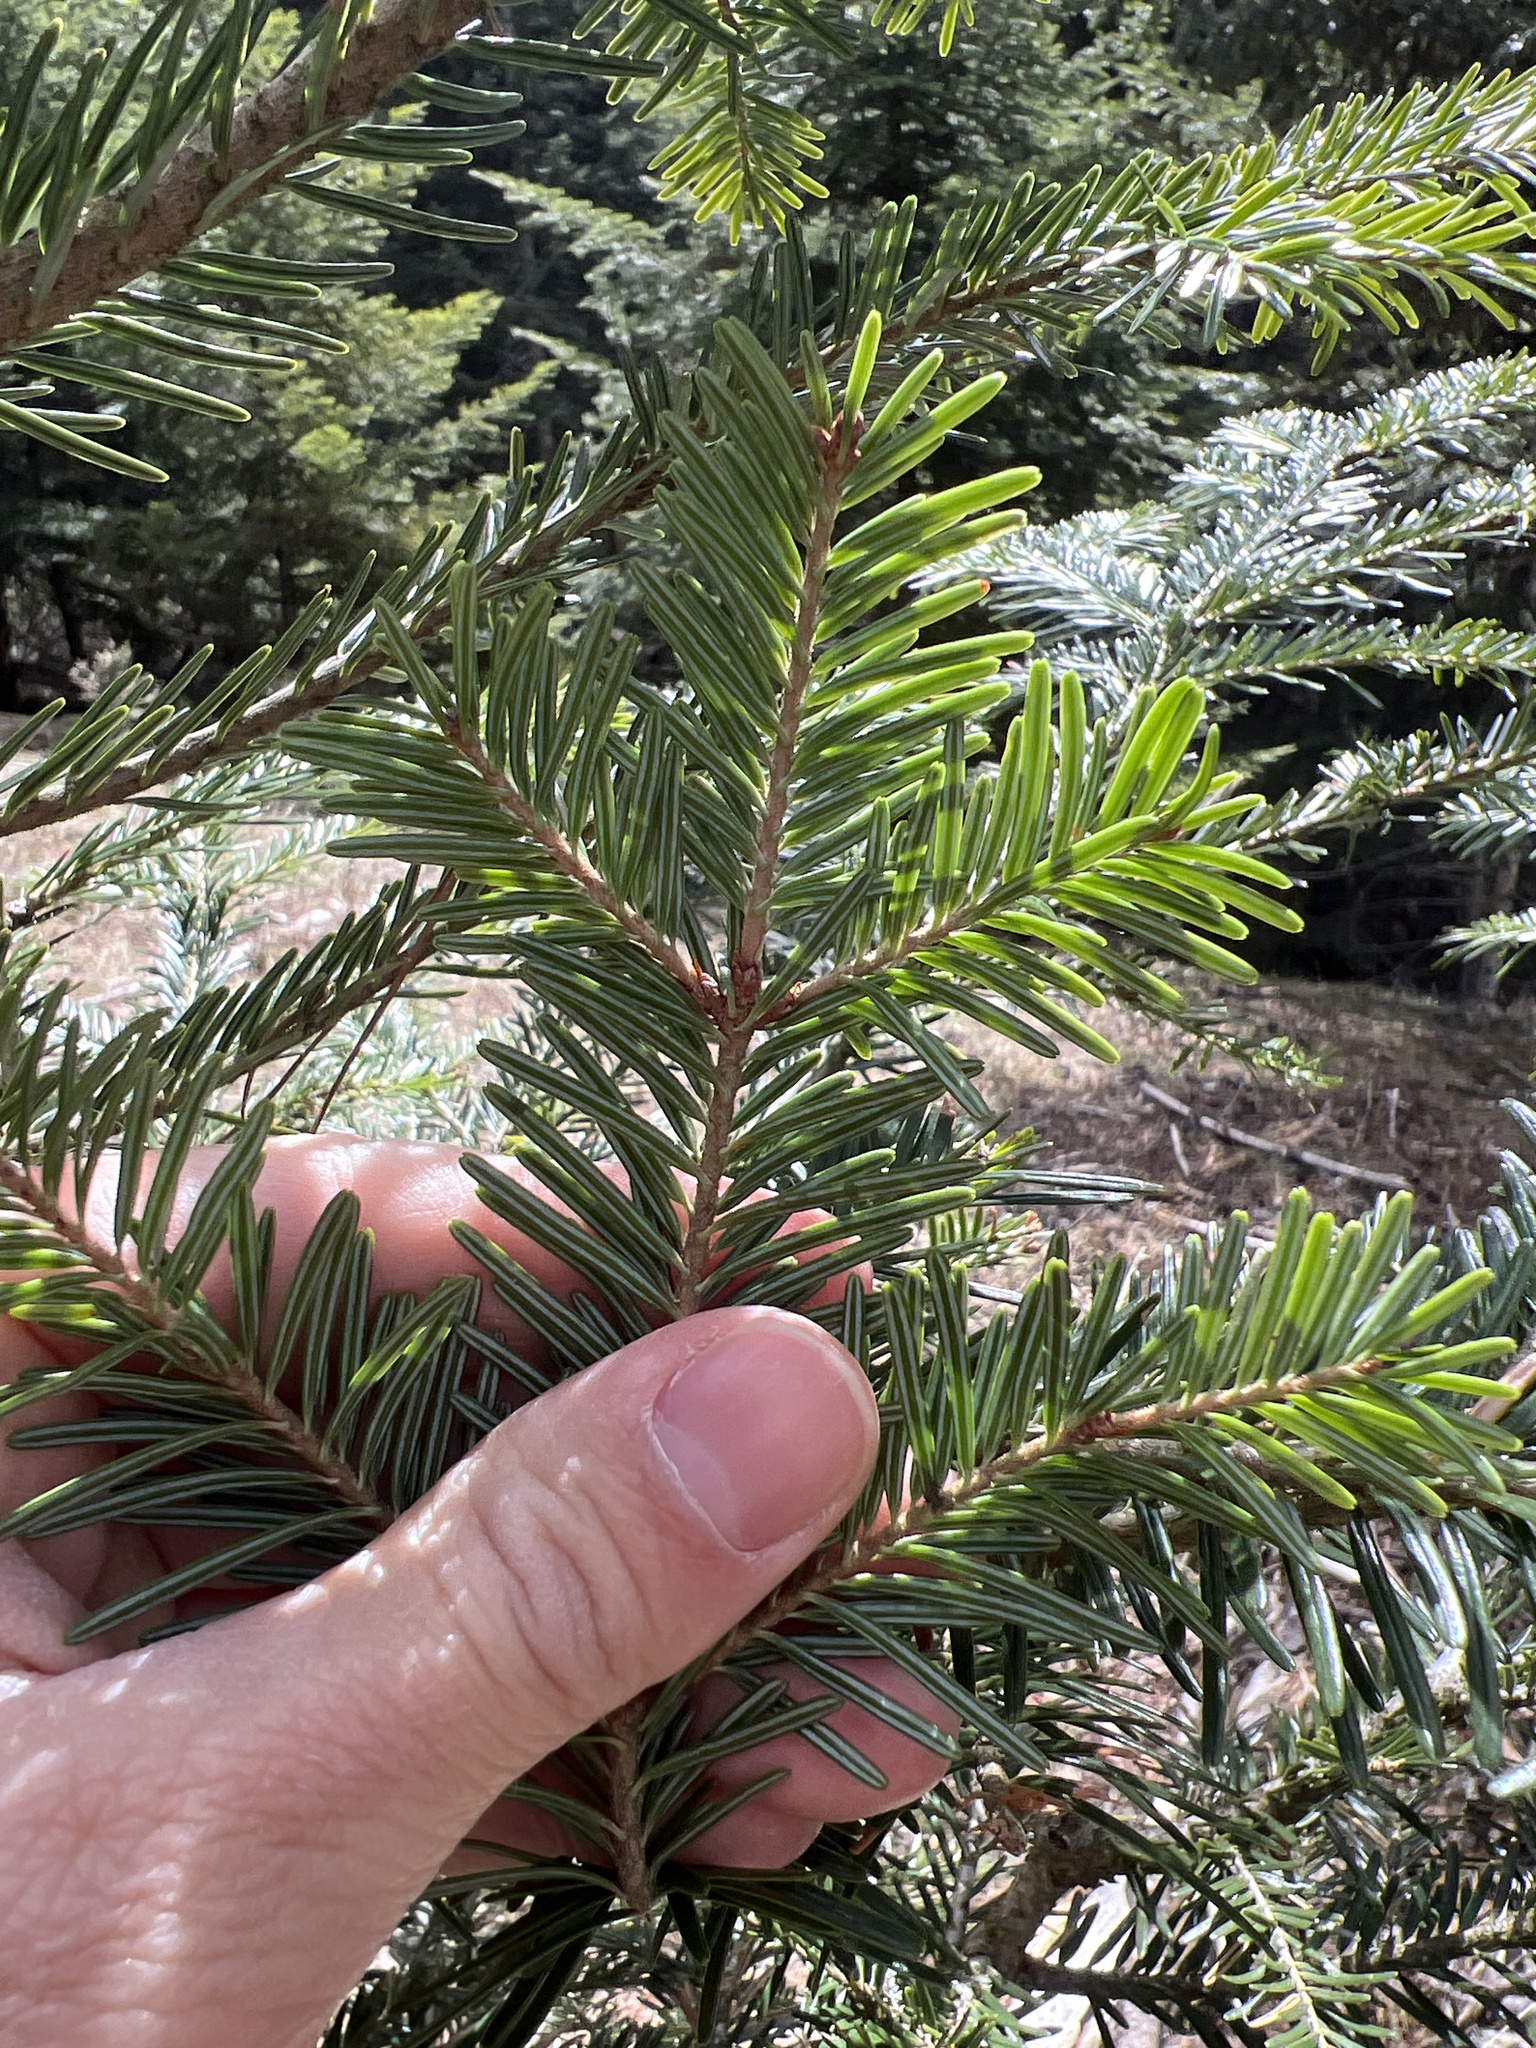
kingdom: Plantae
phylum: Tracheophyta
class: Pinopsida
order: Pinales
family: Pinaceae
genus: Abies
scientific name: Abies alba
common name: Silver fir
